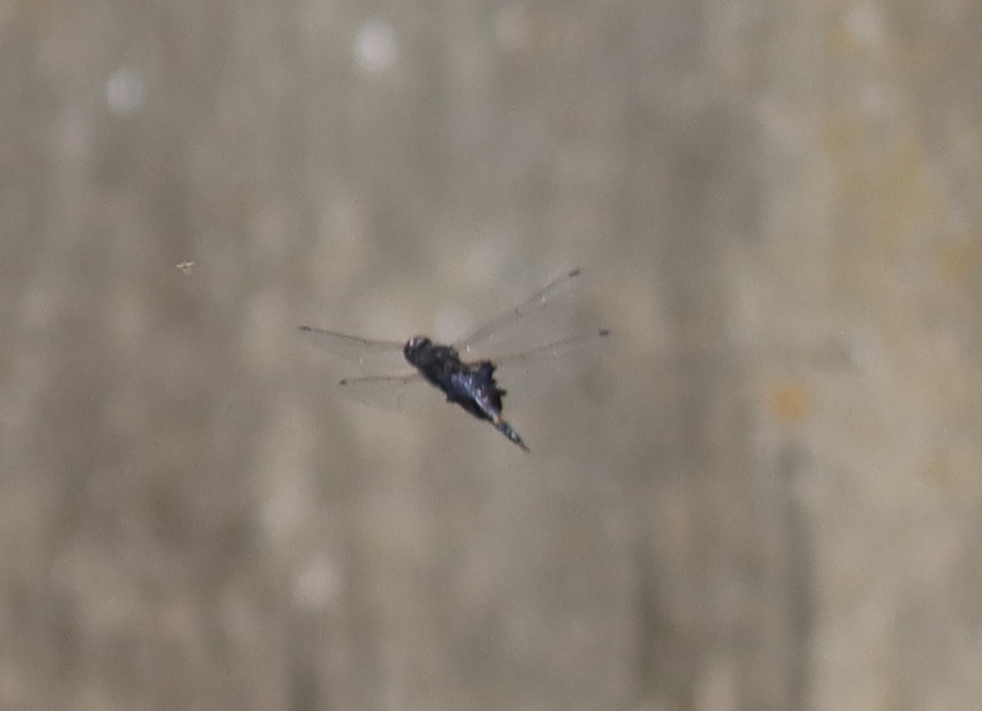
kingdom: Animalia
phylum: Arthropoda
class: Insecta
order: Odonata
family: Libellulidae
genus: Tramea
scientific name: Tramea lacerata
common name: Black saddlebags
